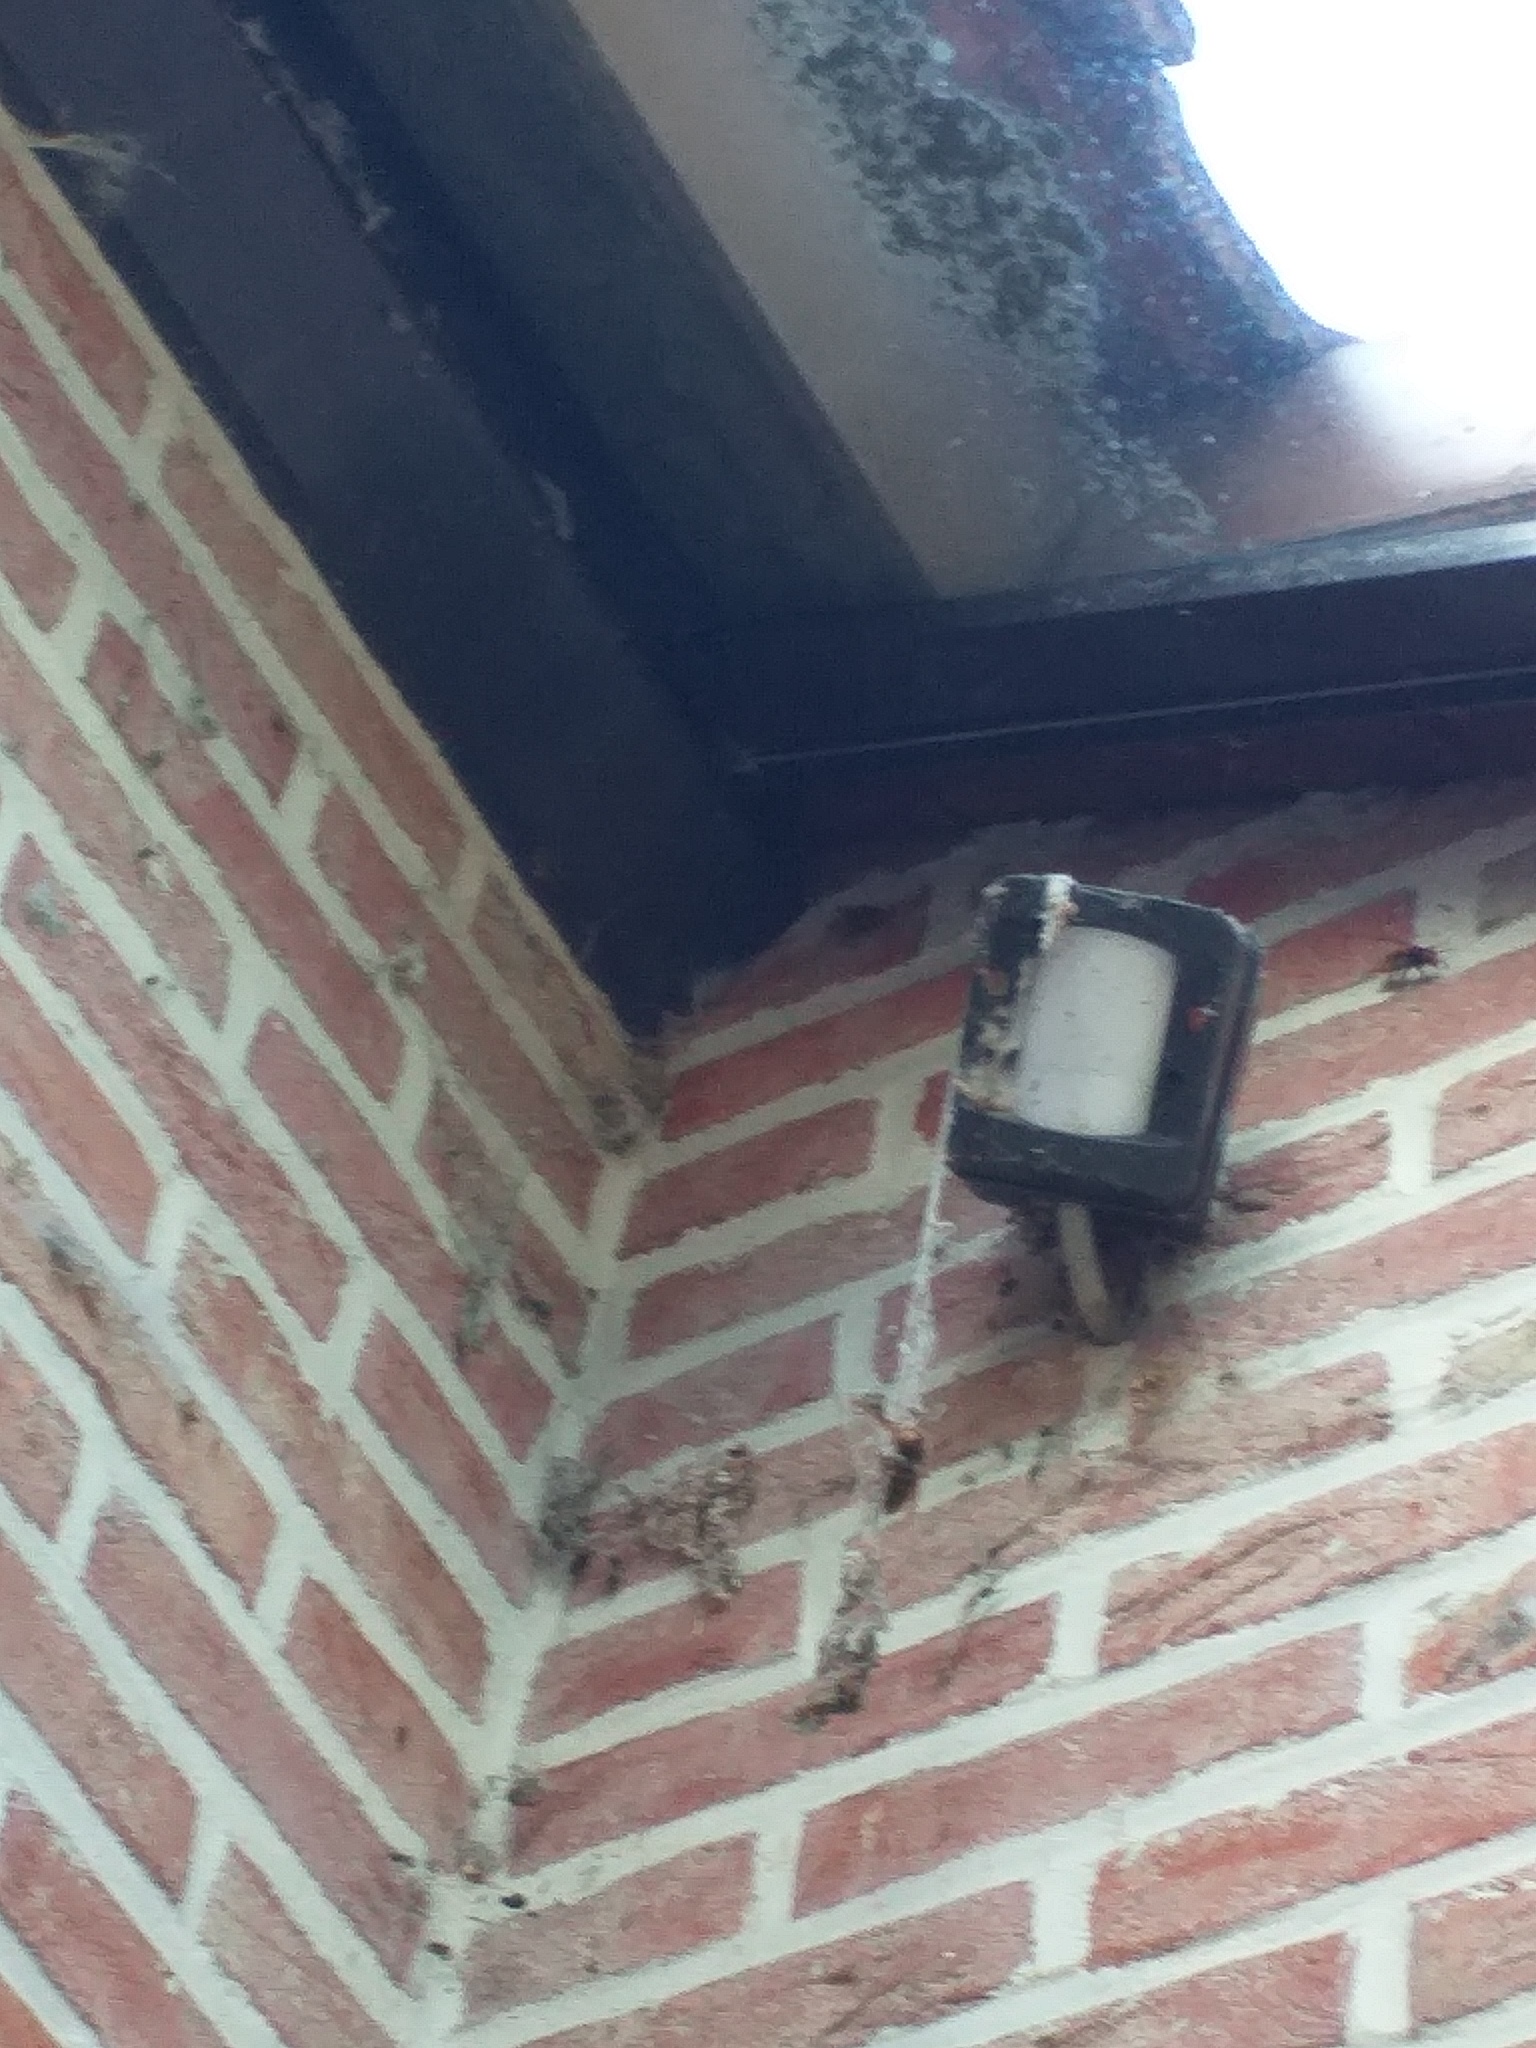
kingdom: Animalia
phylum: Arthropoda
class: Insecta
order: Hymenoptera
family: Vespidae
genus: Vespa
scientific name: Vespa crabro
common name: Hornet
